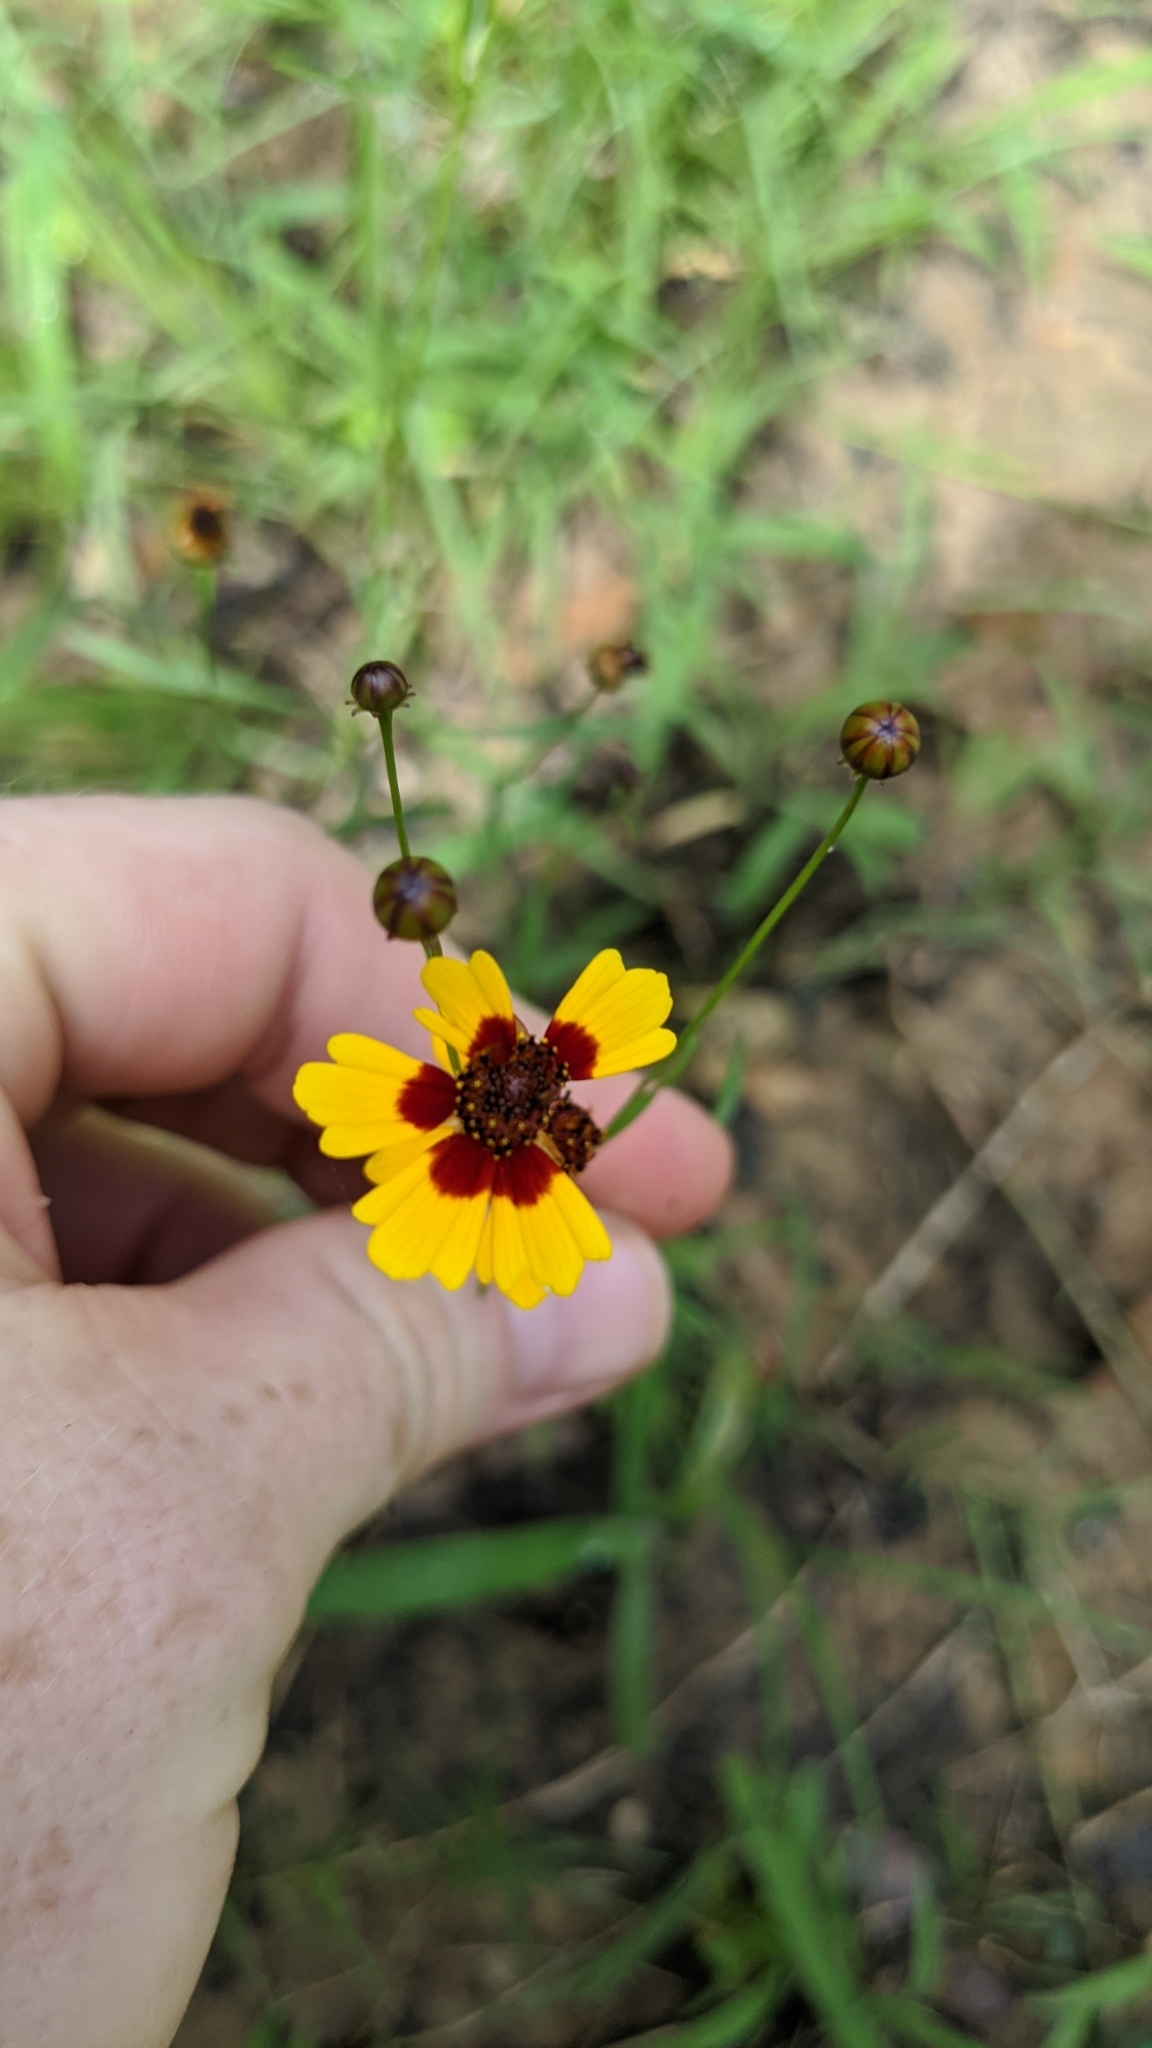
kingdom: Plantae
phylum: Tracheophyta
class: Magnoliopsida
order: Asterales
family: Asteraceae
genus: Coreopsis
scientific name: Coreopsis basalis
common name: Golden-mane coreopsis
